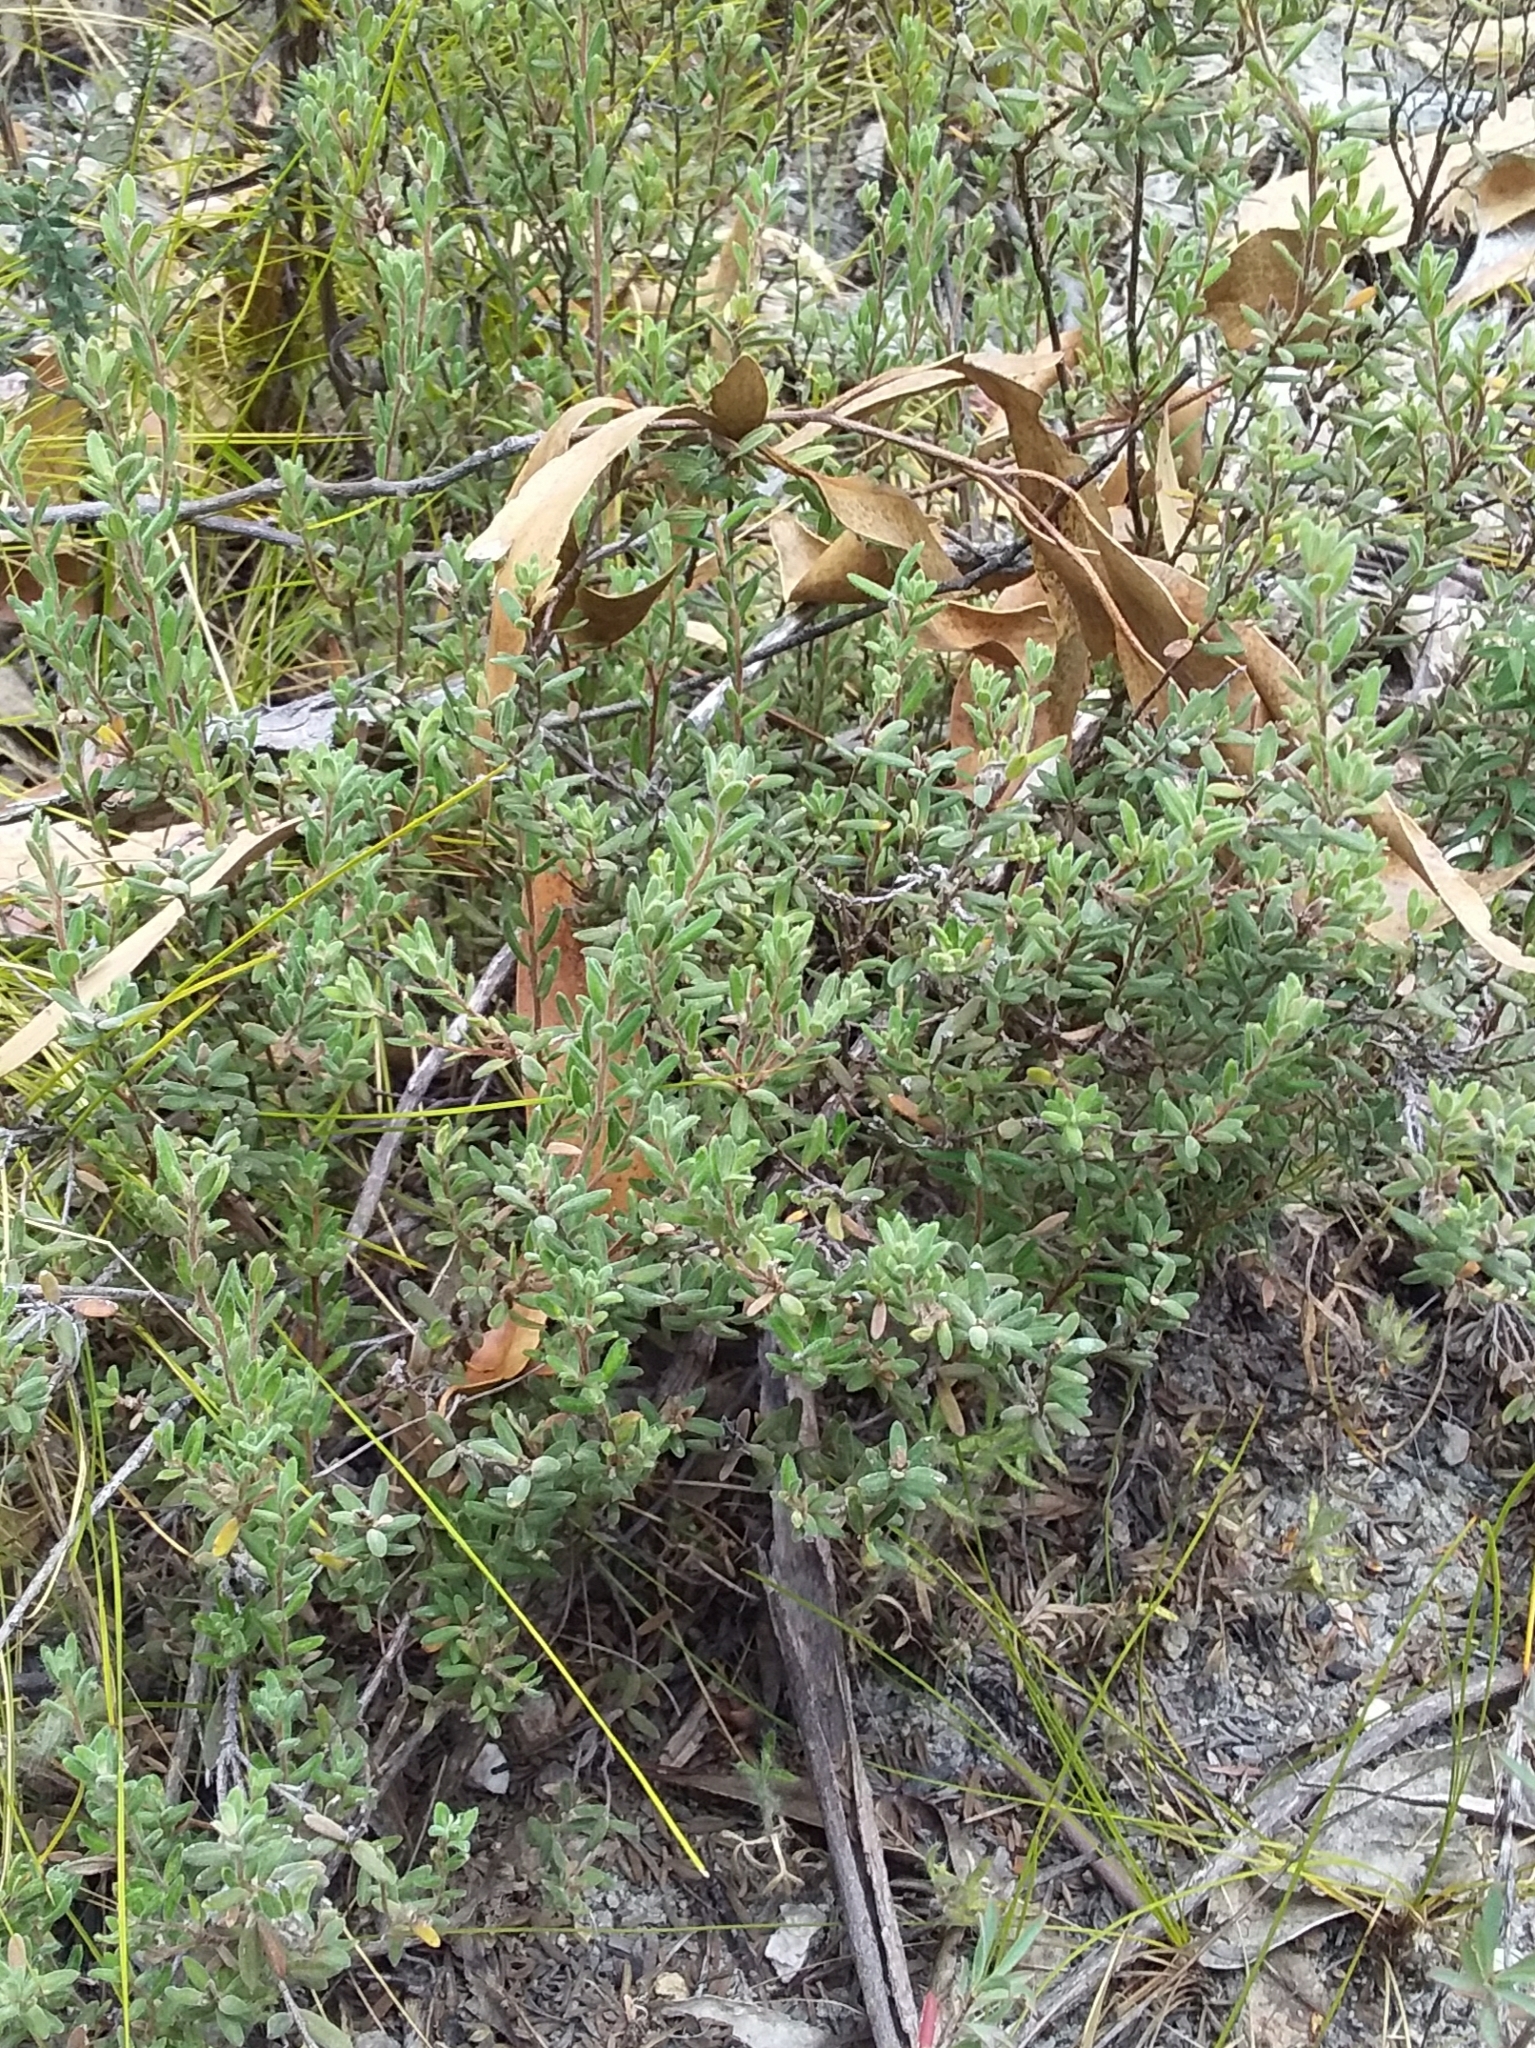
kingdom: Plantae
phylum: Tracheophyta
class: Magnoliopsida
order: Dilleniales
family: Dilleniaceae
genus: Hibbertia
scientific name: Hibbertia crinita
